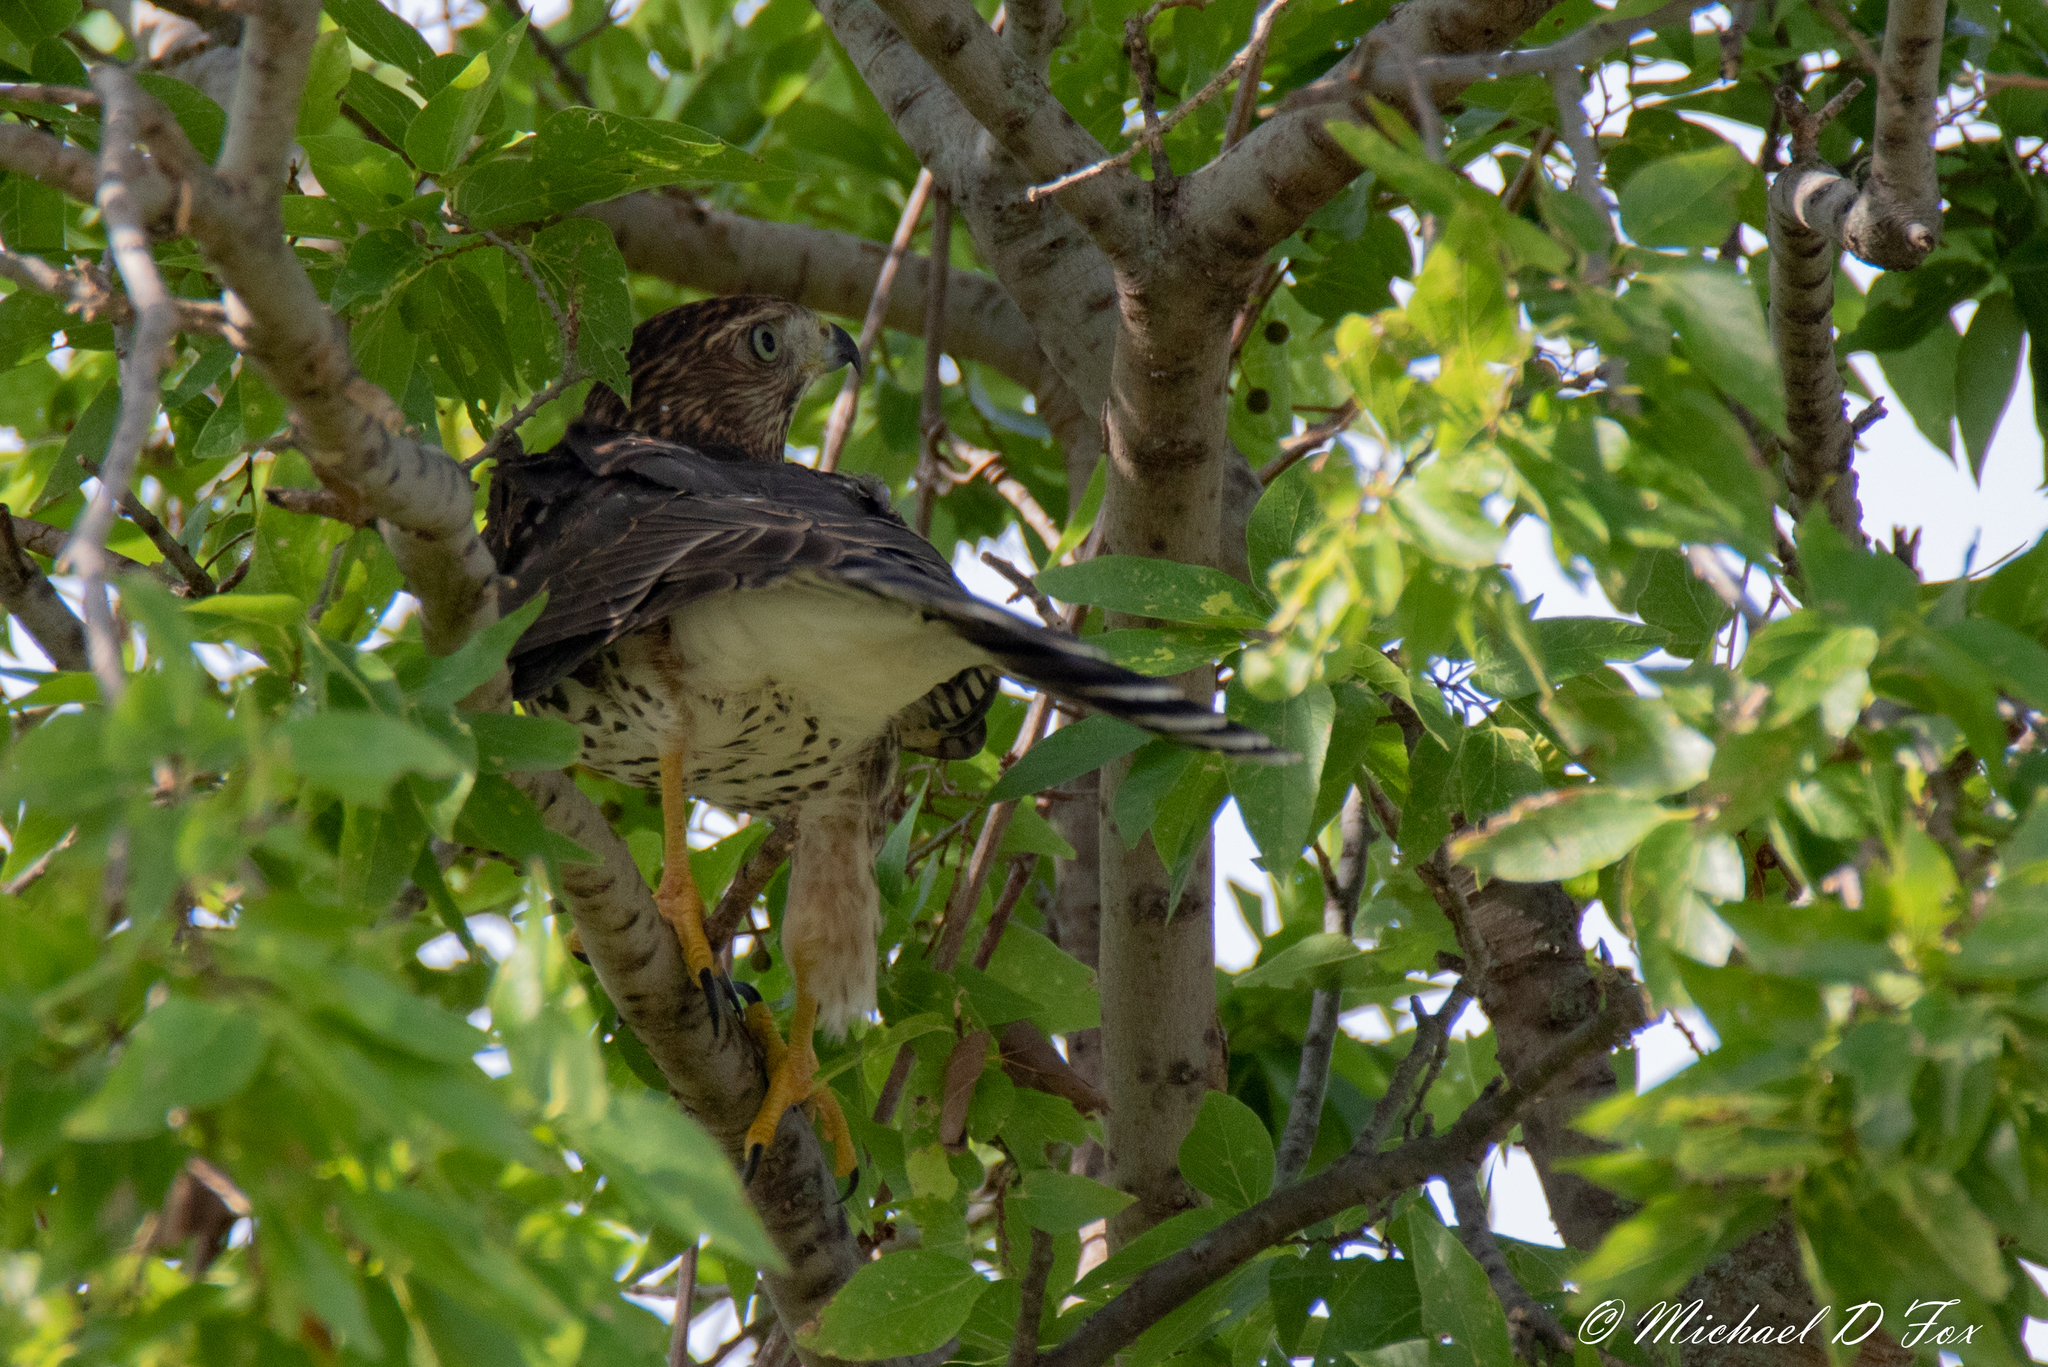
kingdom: Animalia
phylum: Chordata
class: Aves
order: Accipitriformes
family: Accipitridae
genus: Accipiter
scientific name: Accipiter cooperii
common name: Cooper's hawk
